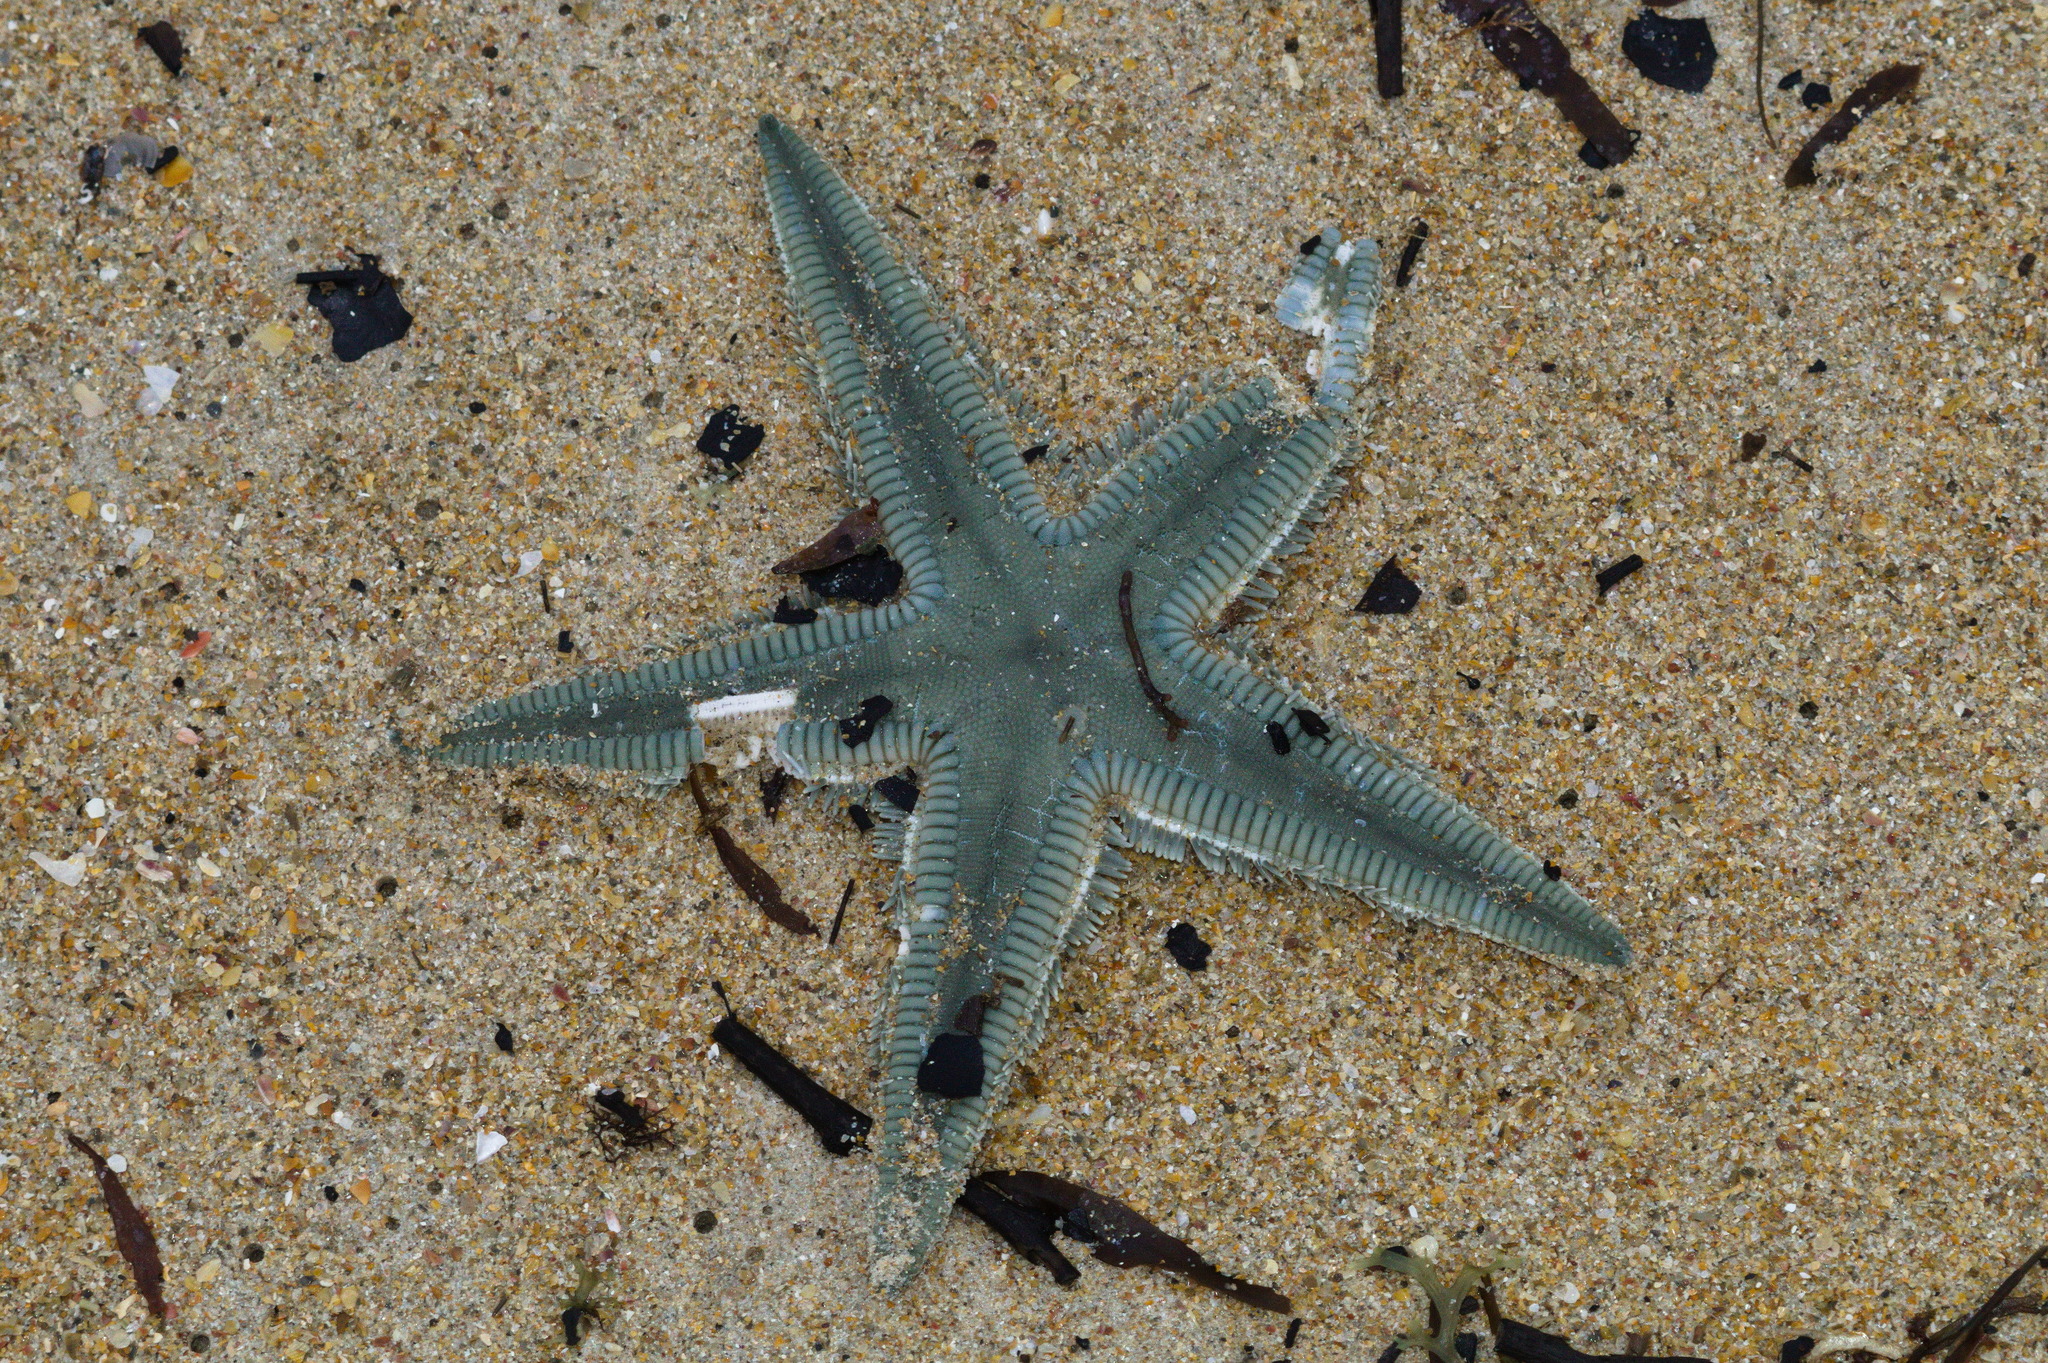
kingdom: Animalia
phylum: Echinodermata
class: Asteroidea
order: Paxillosida
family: Astropectinidae
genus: Astropecten
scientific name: Astropecten marginatus
